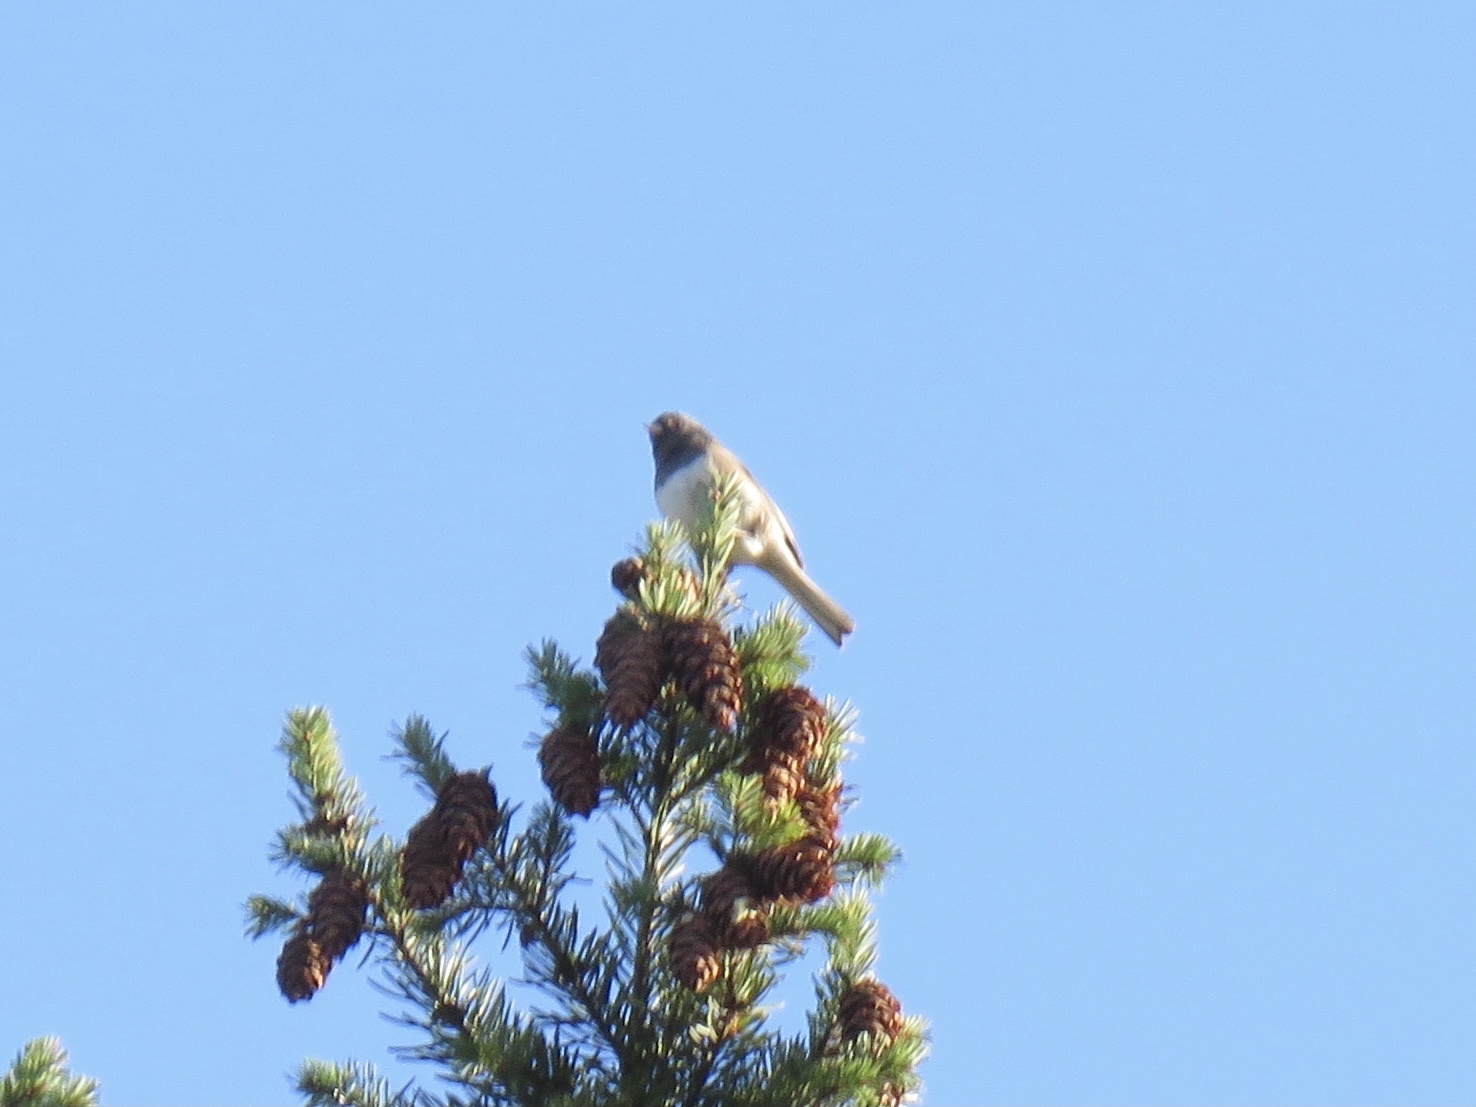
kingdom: Animalia
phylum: Chordata
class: Aves
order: Passeriformes
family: Passerellidae
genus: Junco
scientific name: Junco hyemalis
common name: Dark-eyed junco
